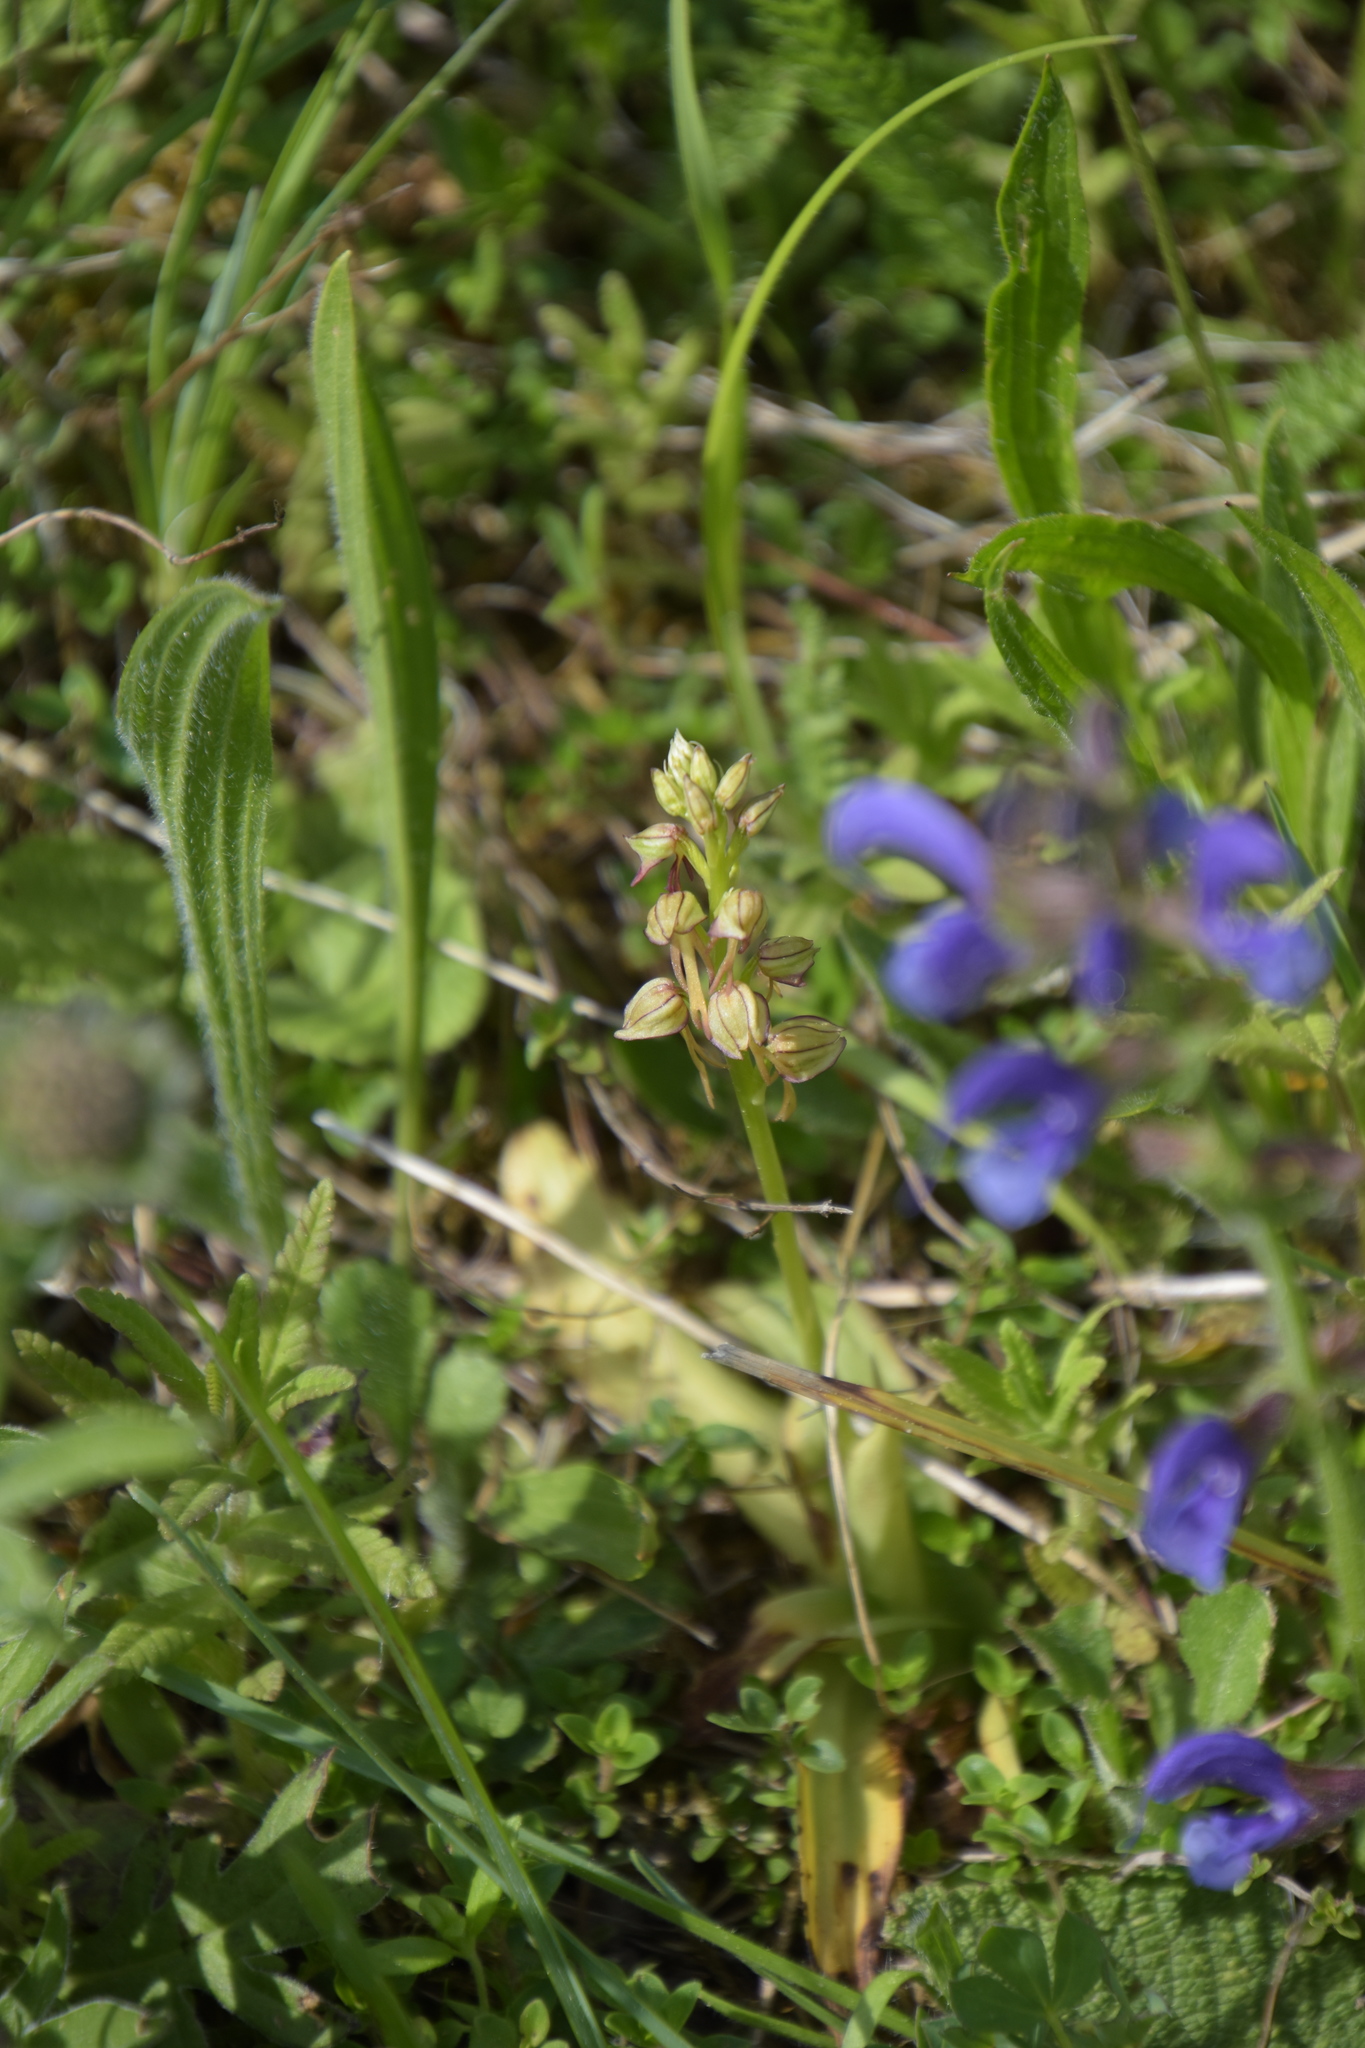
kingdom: Plantae
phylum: Tracheophyta
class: Liliopsida
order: Asparagales
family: Orchidaceae
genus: Orchis
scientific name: Orchis anthropophora
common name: Man orchid
